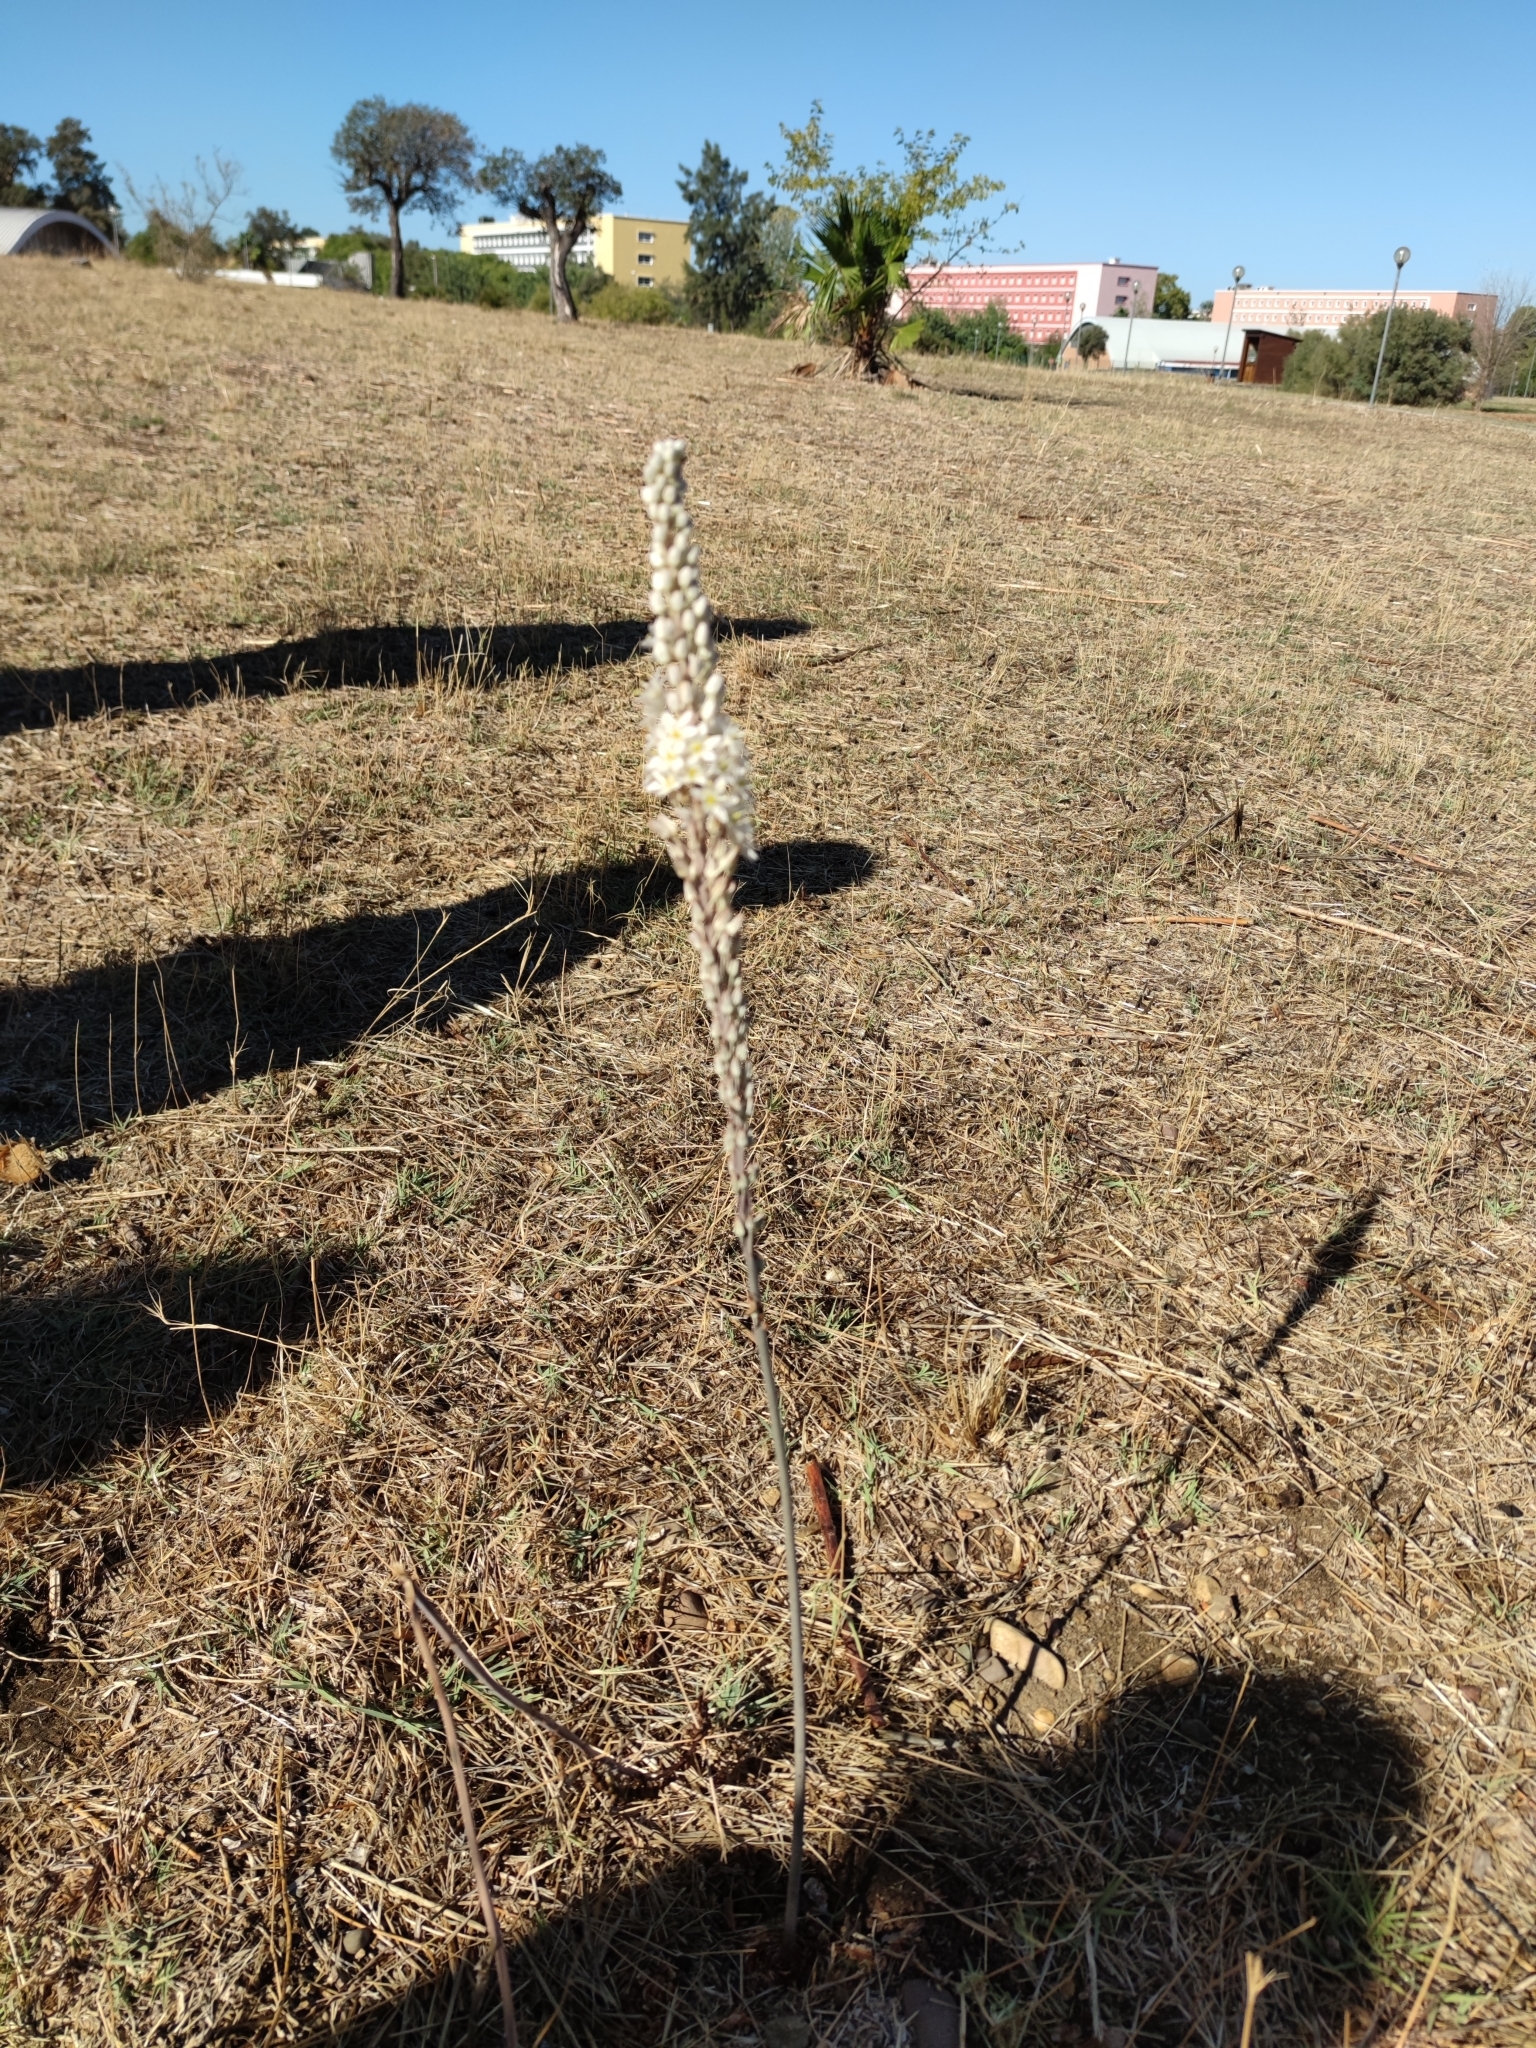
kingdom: Plantae
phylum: Tracheophyta
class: Liliopsida
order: Asparagales
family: Asparagaceae
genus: Drimia
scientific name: Drimia maritima
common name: Maritime squill
